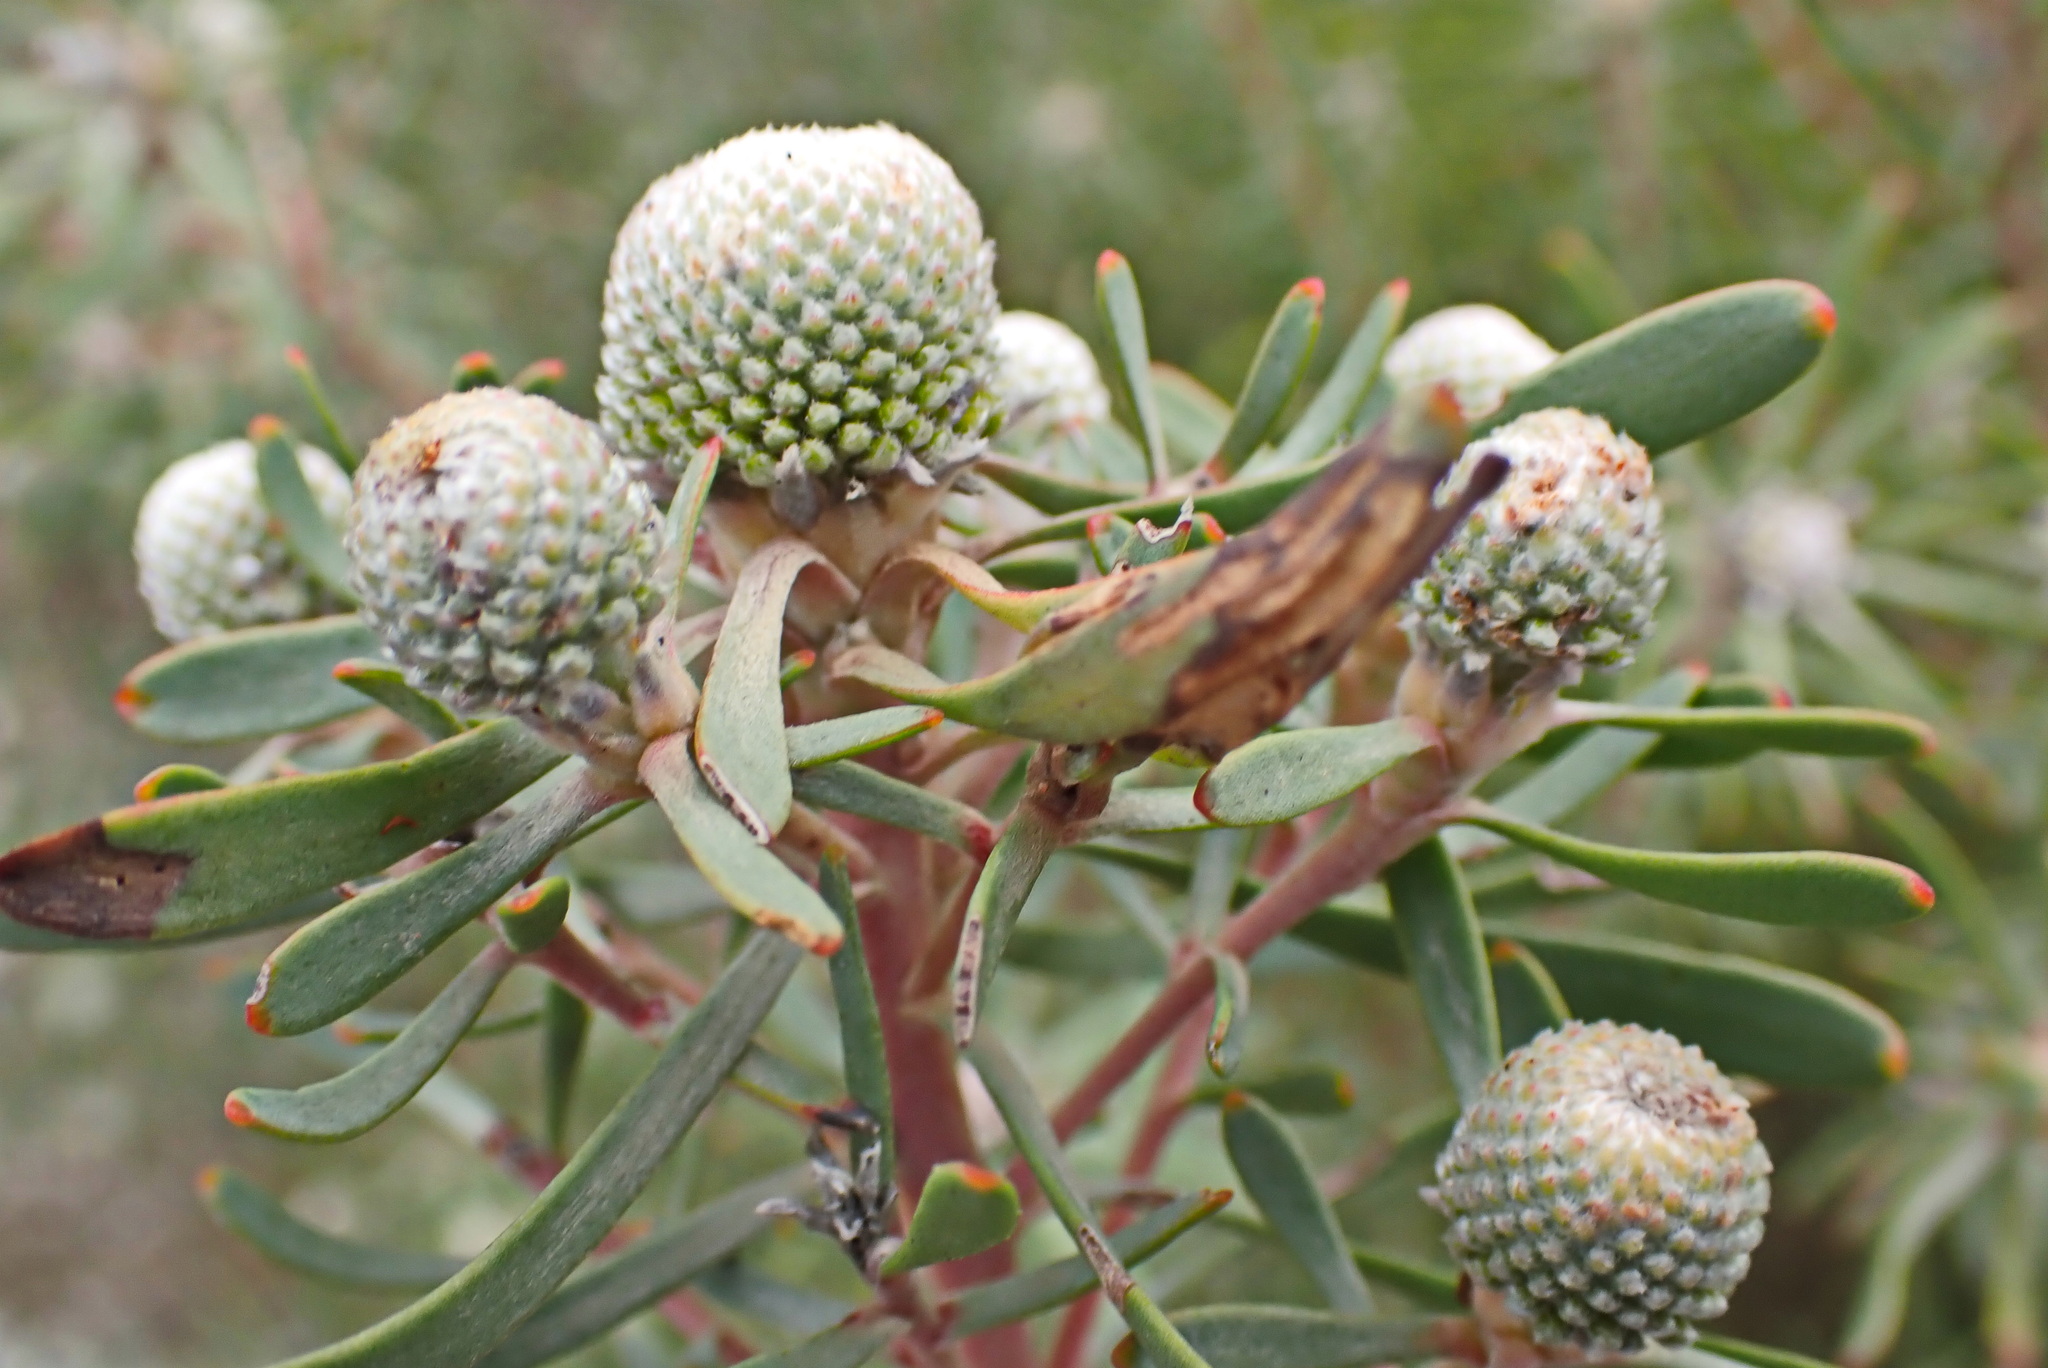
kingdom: Plantae
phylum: Tracheophyta
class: Magnoliopsida
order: Proteales
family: Proteaceae
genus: Leucadendron
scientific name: Leucadendron galpinii
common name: Hairless conebush
